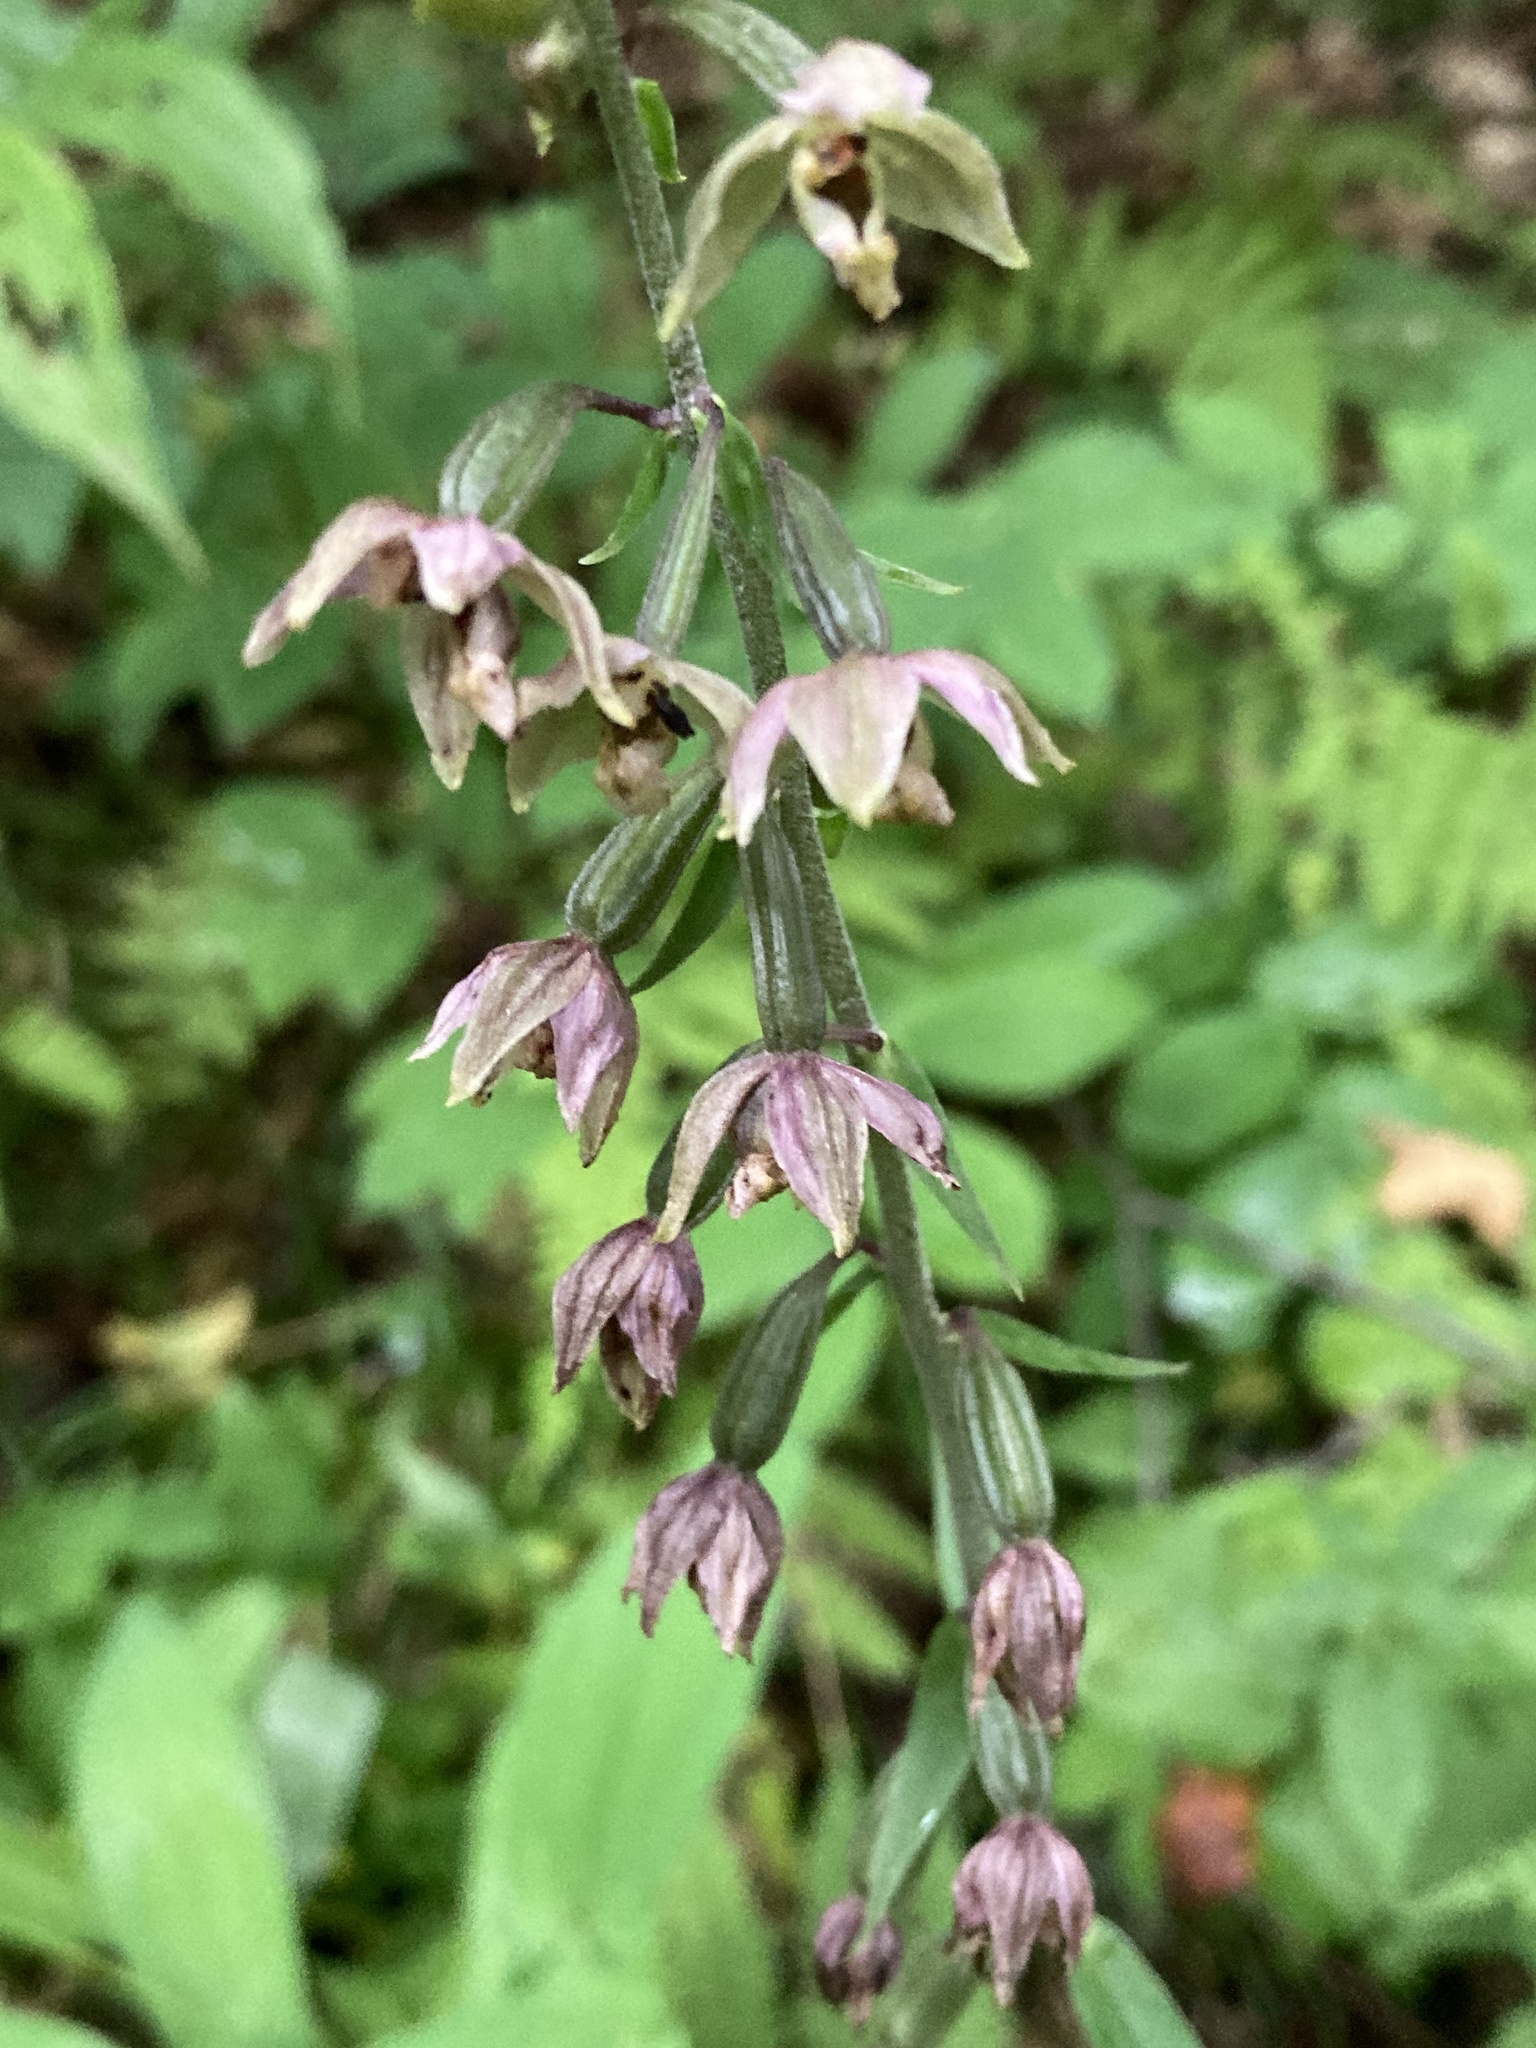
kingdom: Plantae
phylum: Tracheophyta
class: Liliopsida
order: Asparagales
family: Orchidaceae
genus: Epipactis
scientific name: Epipactis helleborine
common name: Broad-leaved helleborine
